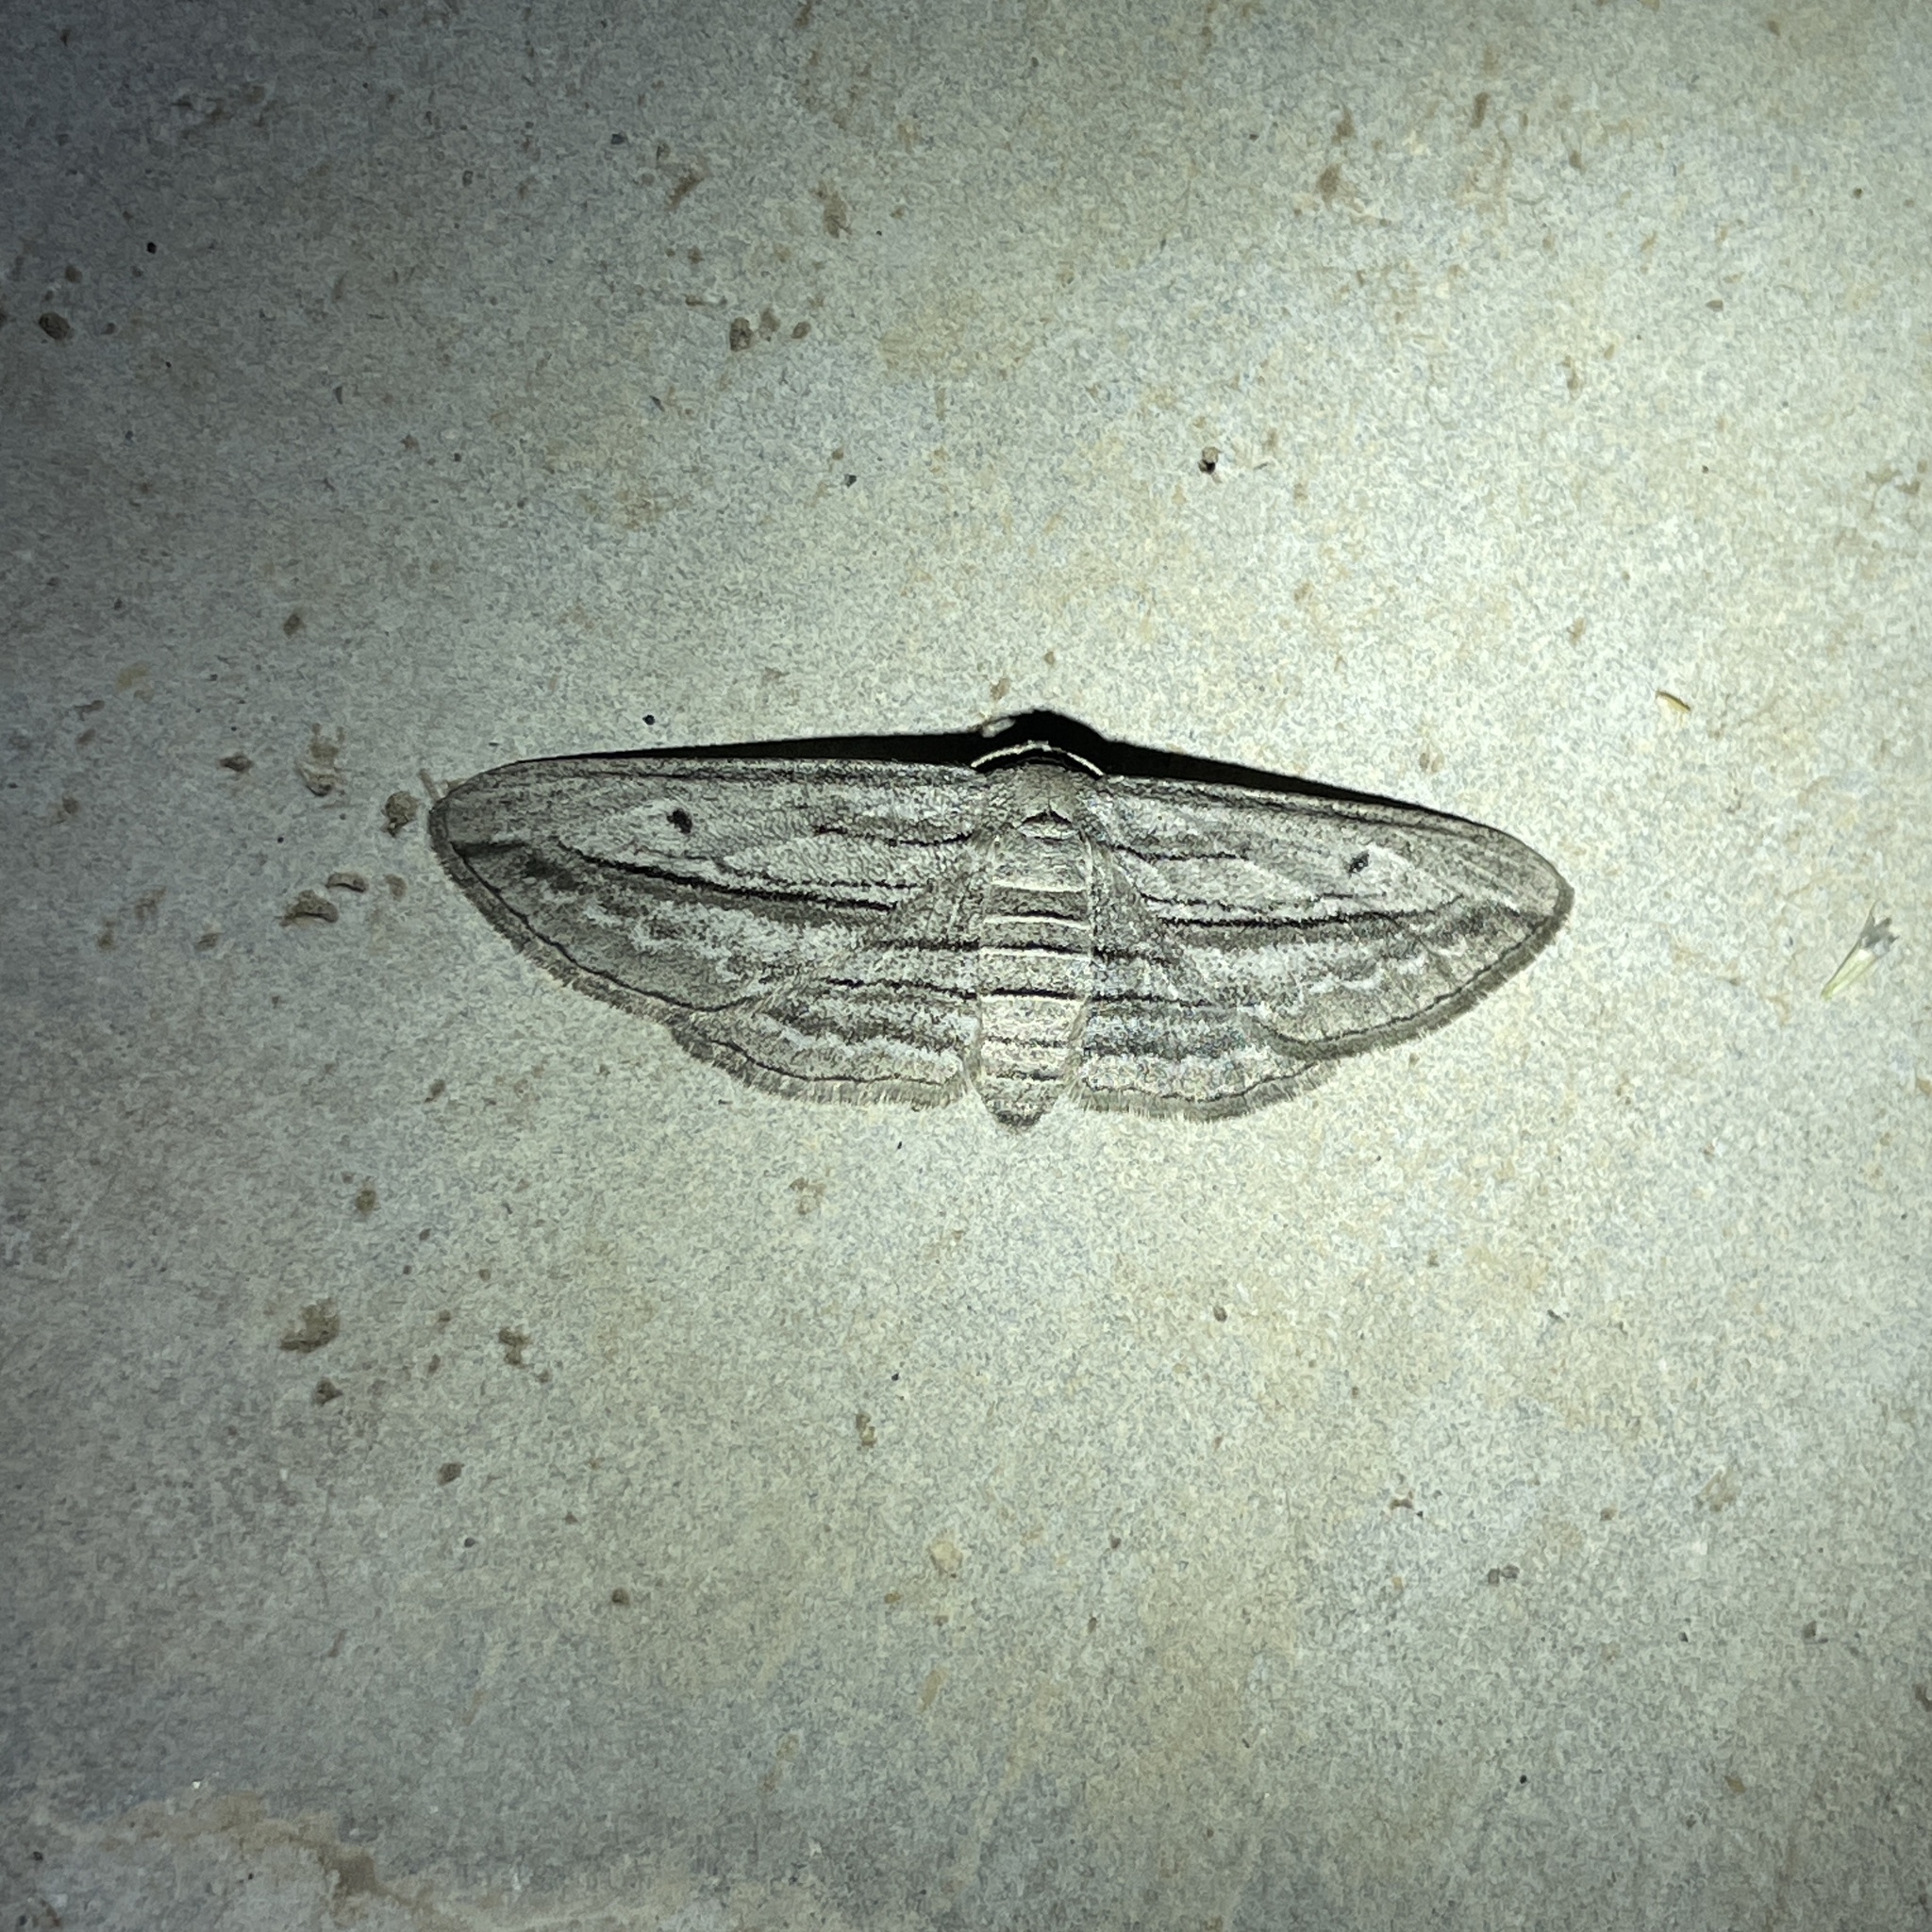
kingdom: Animalia
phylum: Arthropoda
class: Insecta
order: Lepidoptera
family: Geometridae
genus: Glena
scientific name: Glena quinquelinearia
